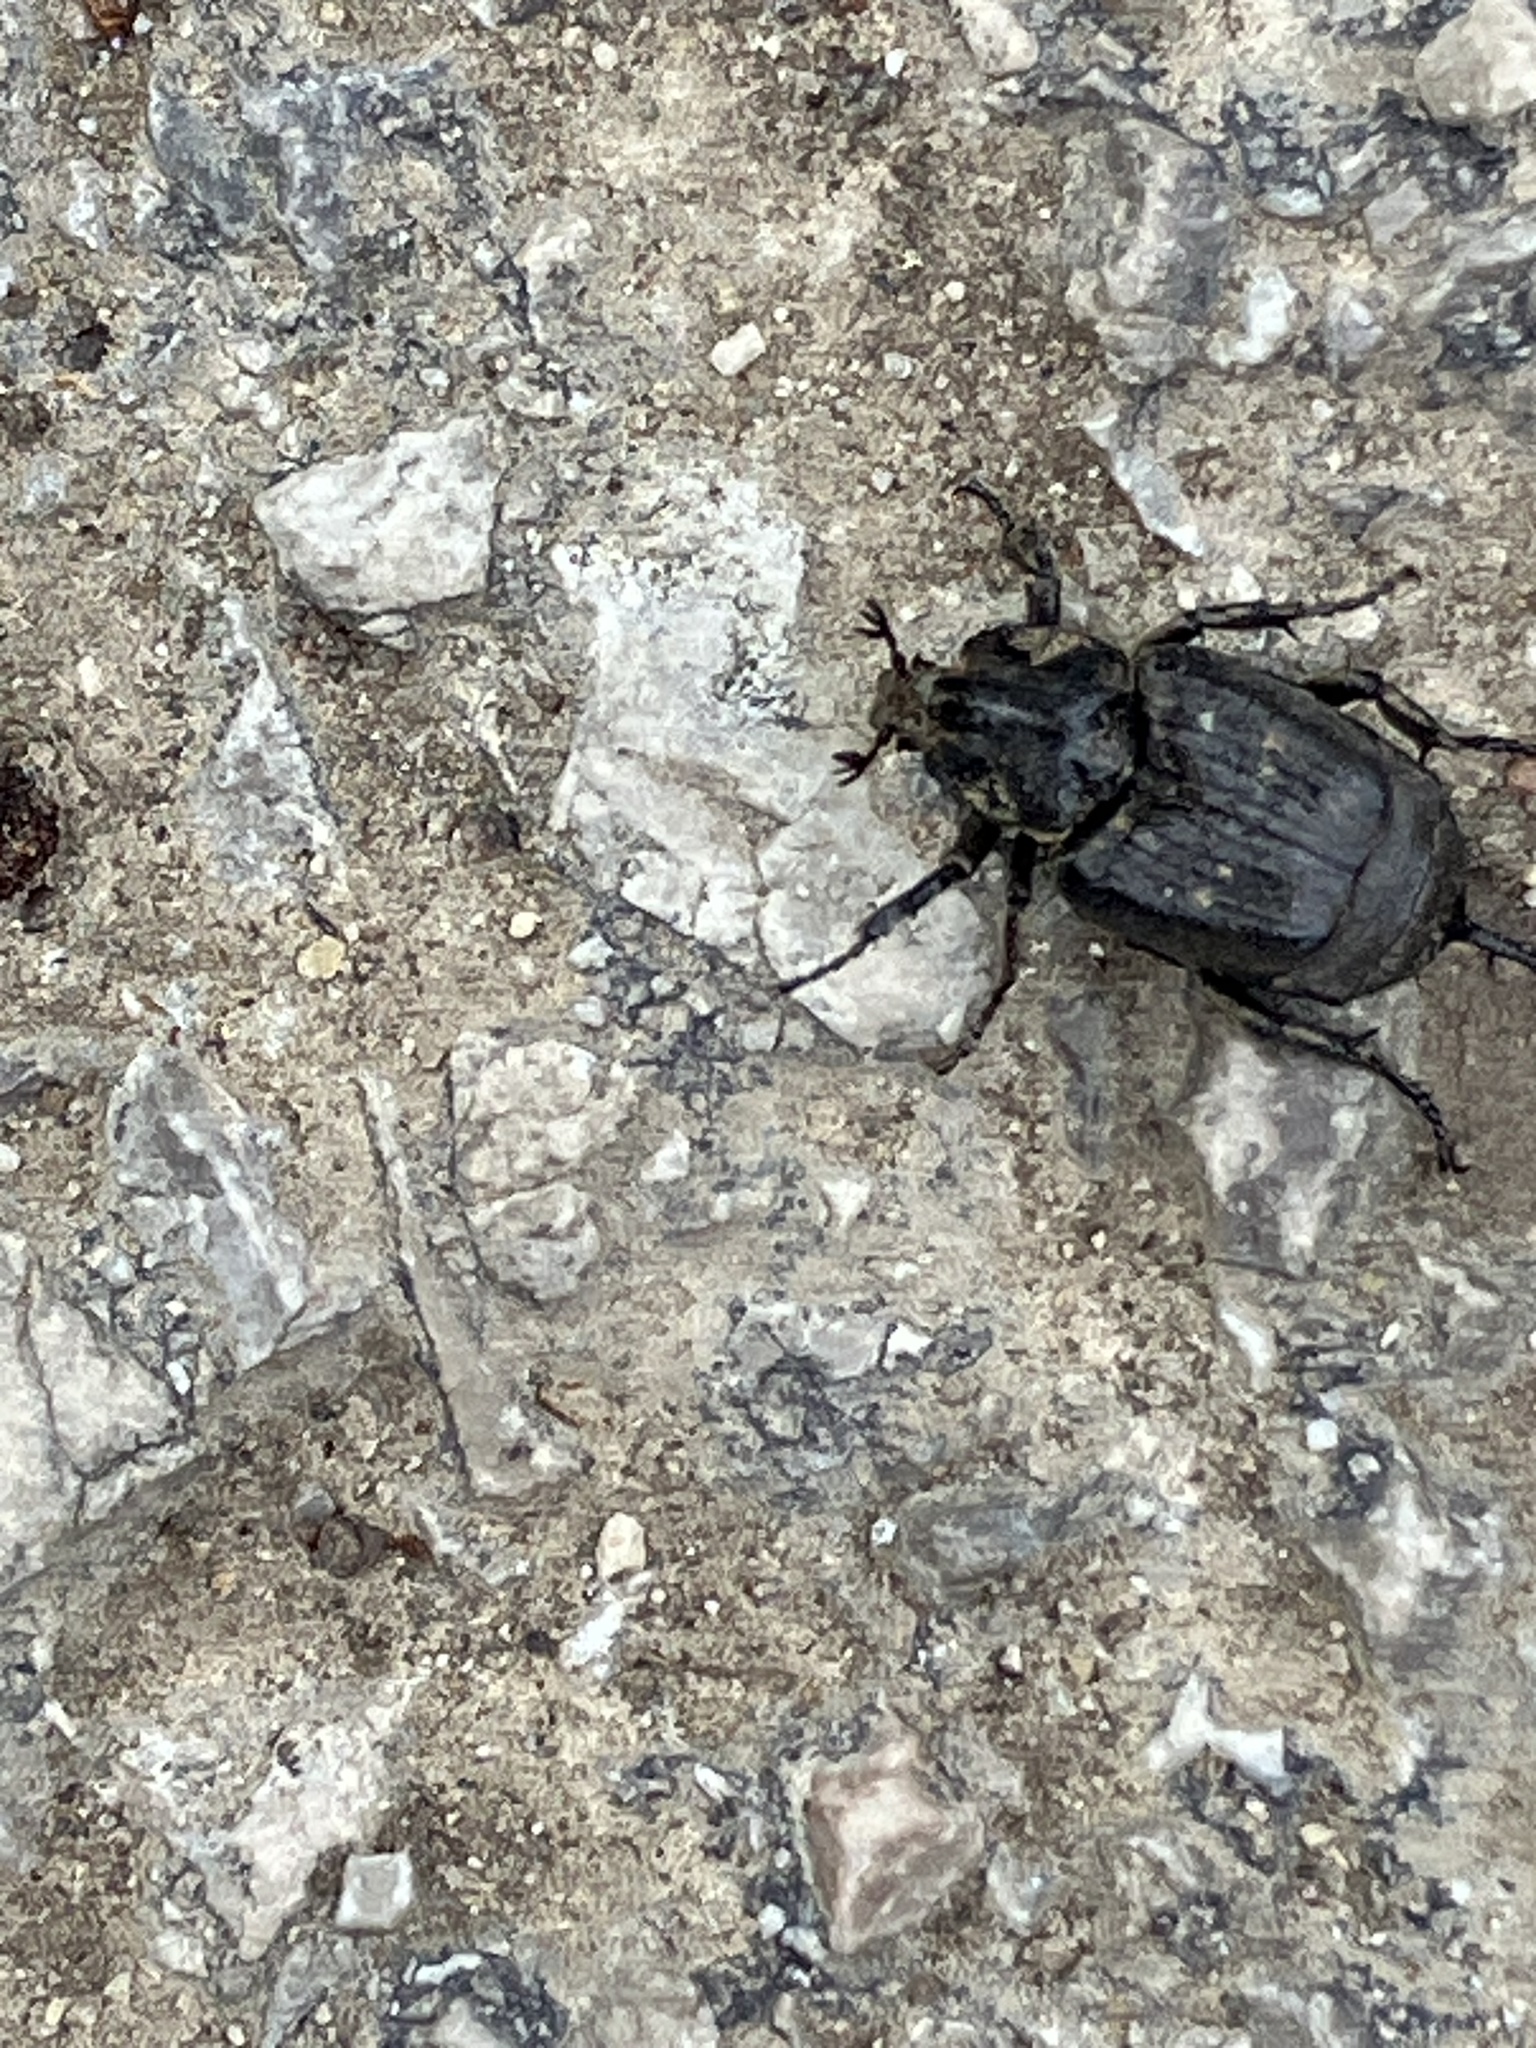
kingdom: Animalia
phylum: Arthropoda
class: Insecta
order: Coleoptera
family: Scarabaeidae
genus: Valgus
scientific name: Valgus hemipterus
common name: Bug flower chafer
